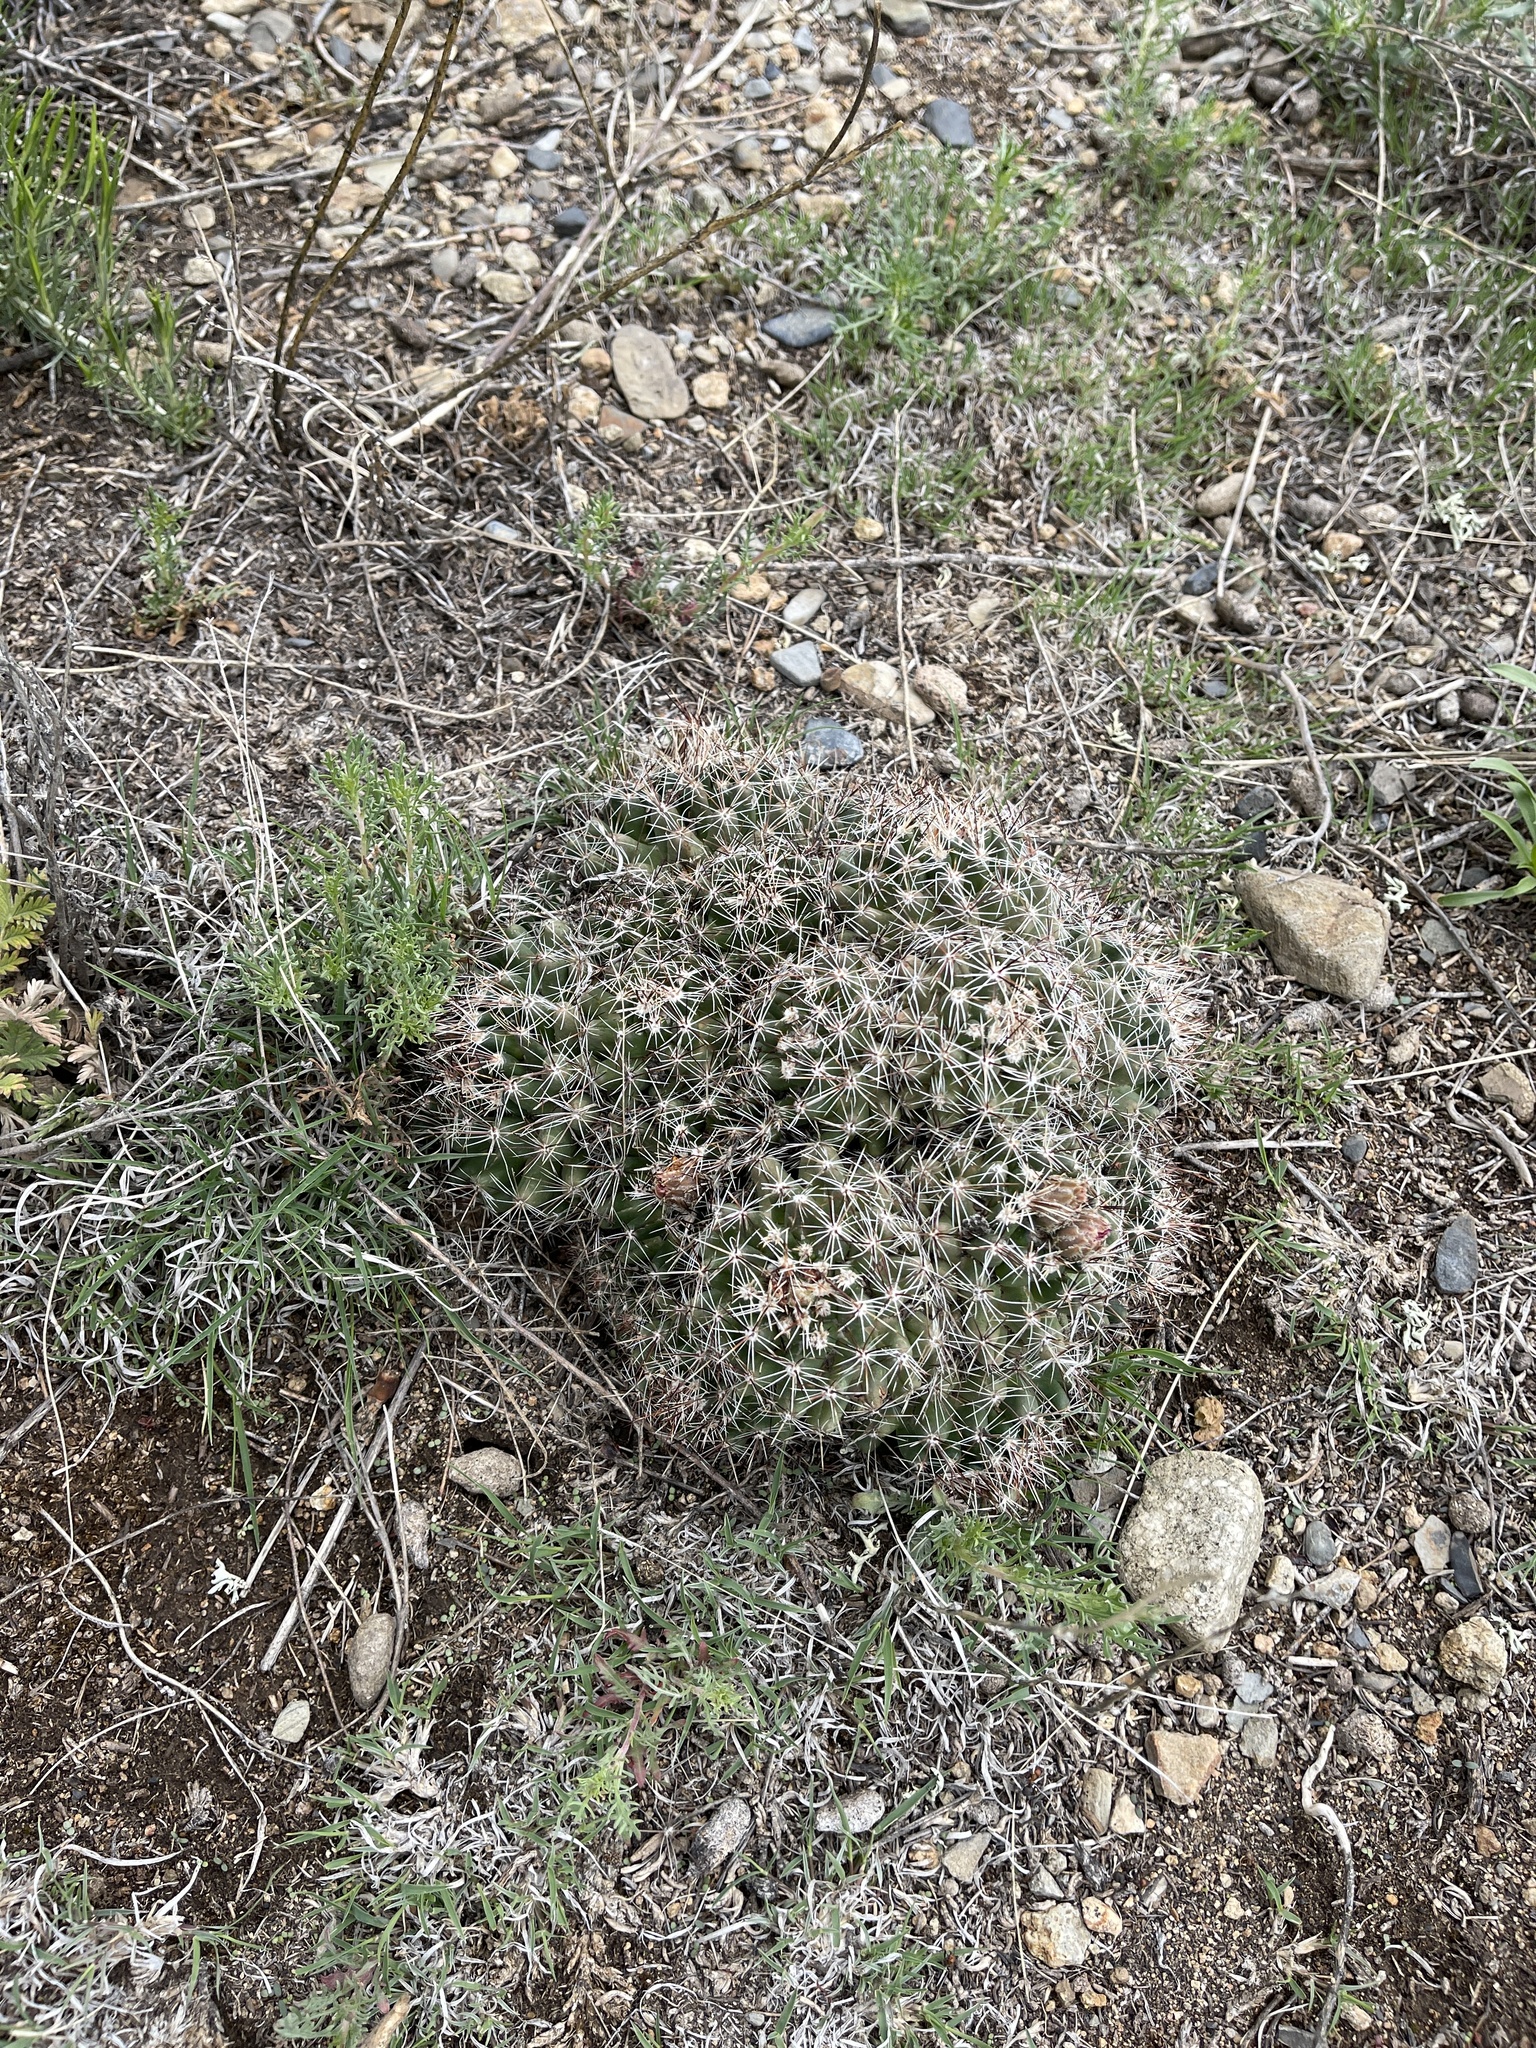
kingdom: Plantae
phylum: Tracheophyta
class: Magnoliopsida
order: Caryophyllales
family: Cactaceae
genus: Pelecyphora
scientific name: Pelecyphora vivipara
